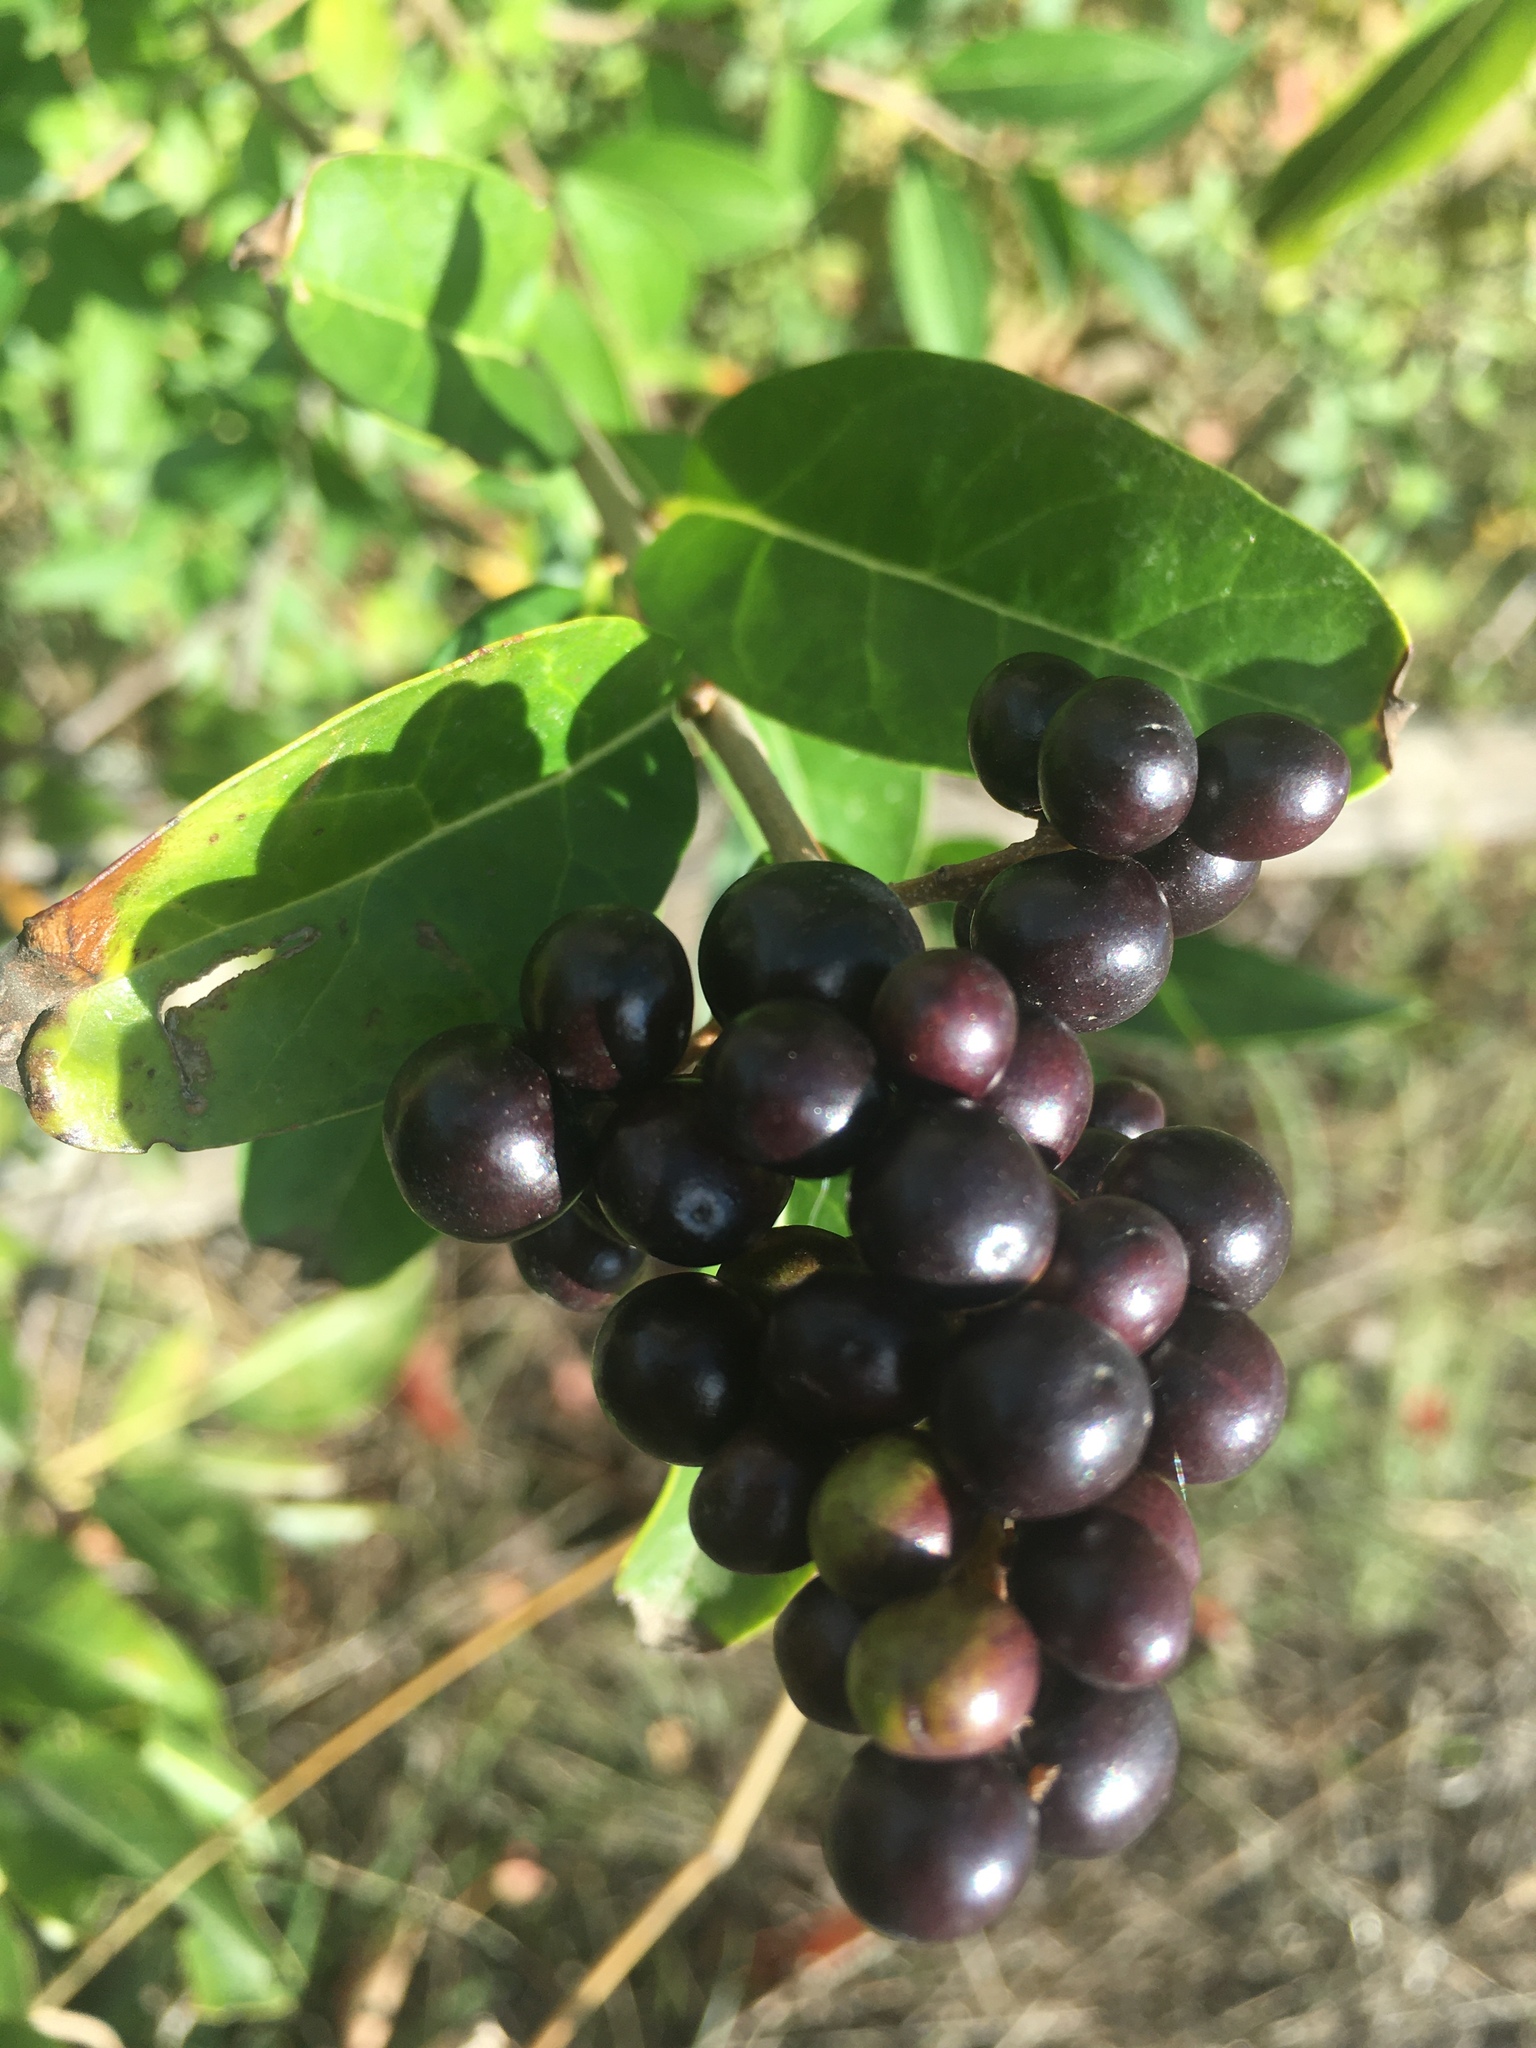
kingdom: Plantae
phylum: Tracheophyta
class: Magnoliopsida
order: Lamiales
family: Oleaceae
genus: Ligustrum
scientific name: Ligustrum vulgare
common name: Wild privet
